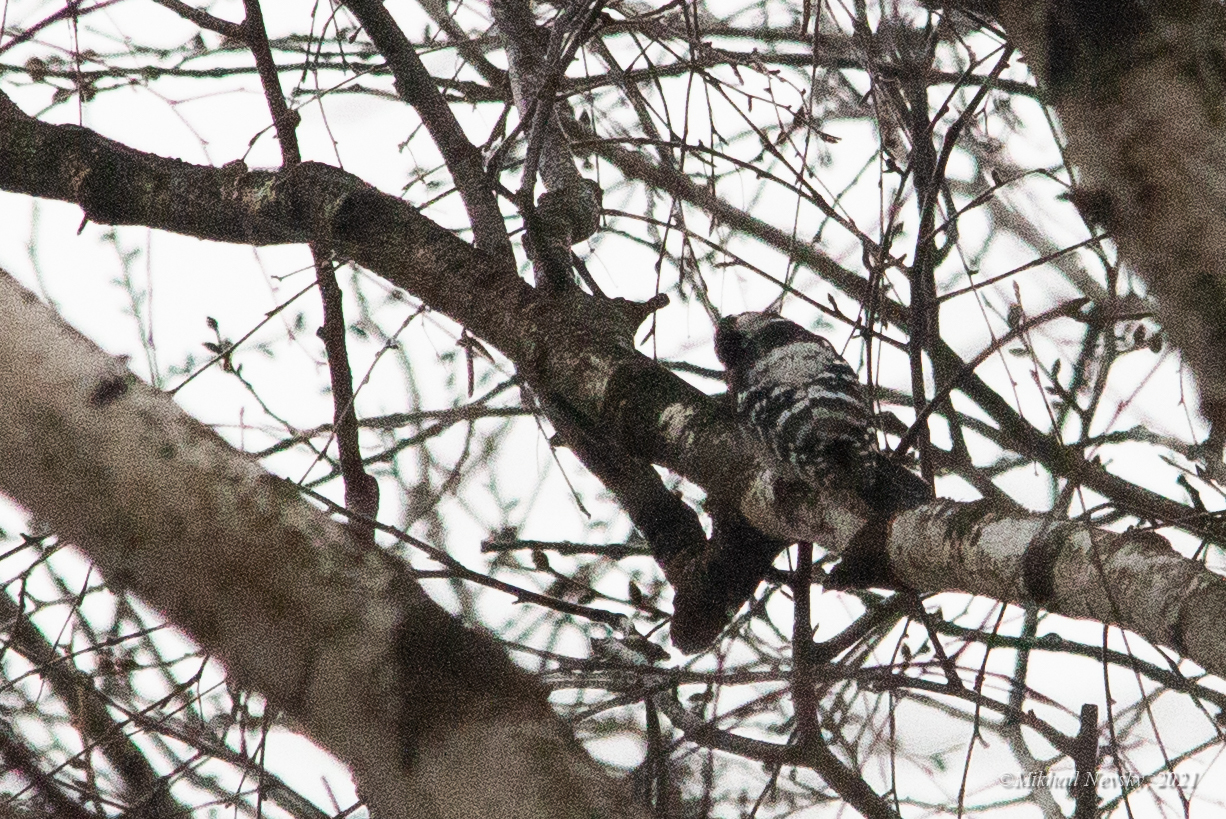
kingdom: Animalia
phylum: Chordata
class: Aves
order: Piciformes
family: Picidae
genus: Dryobates
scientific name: Dryobates minor
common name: Lesser spotted woodpecker
